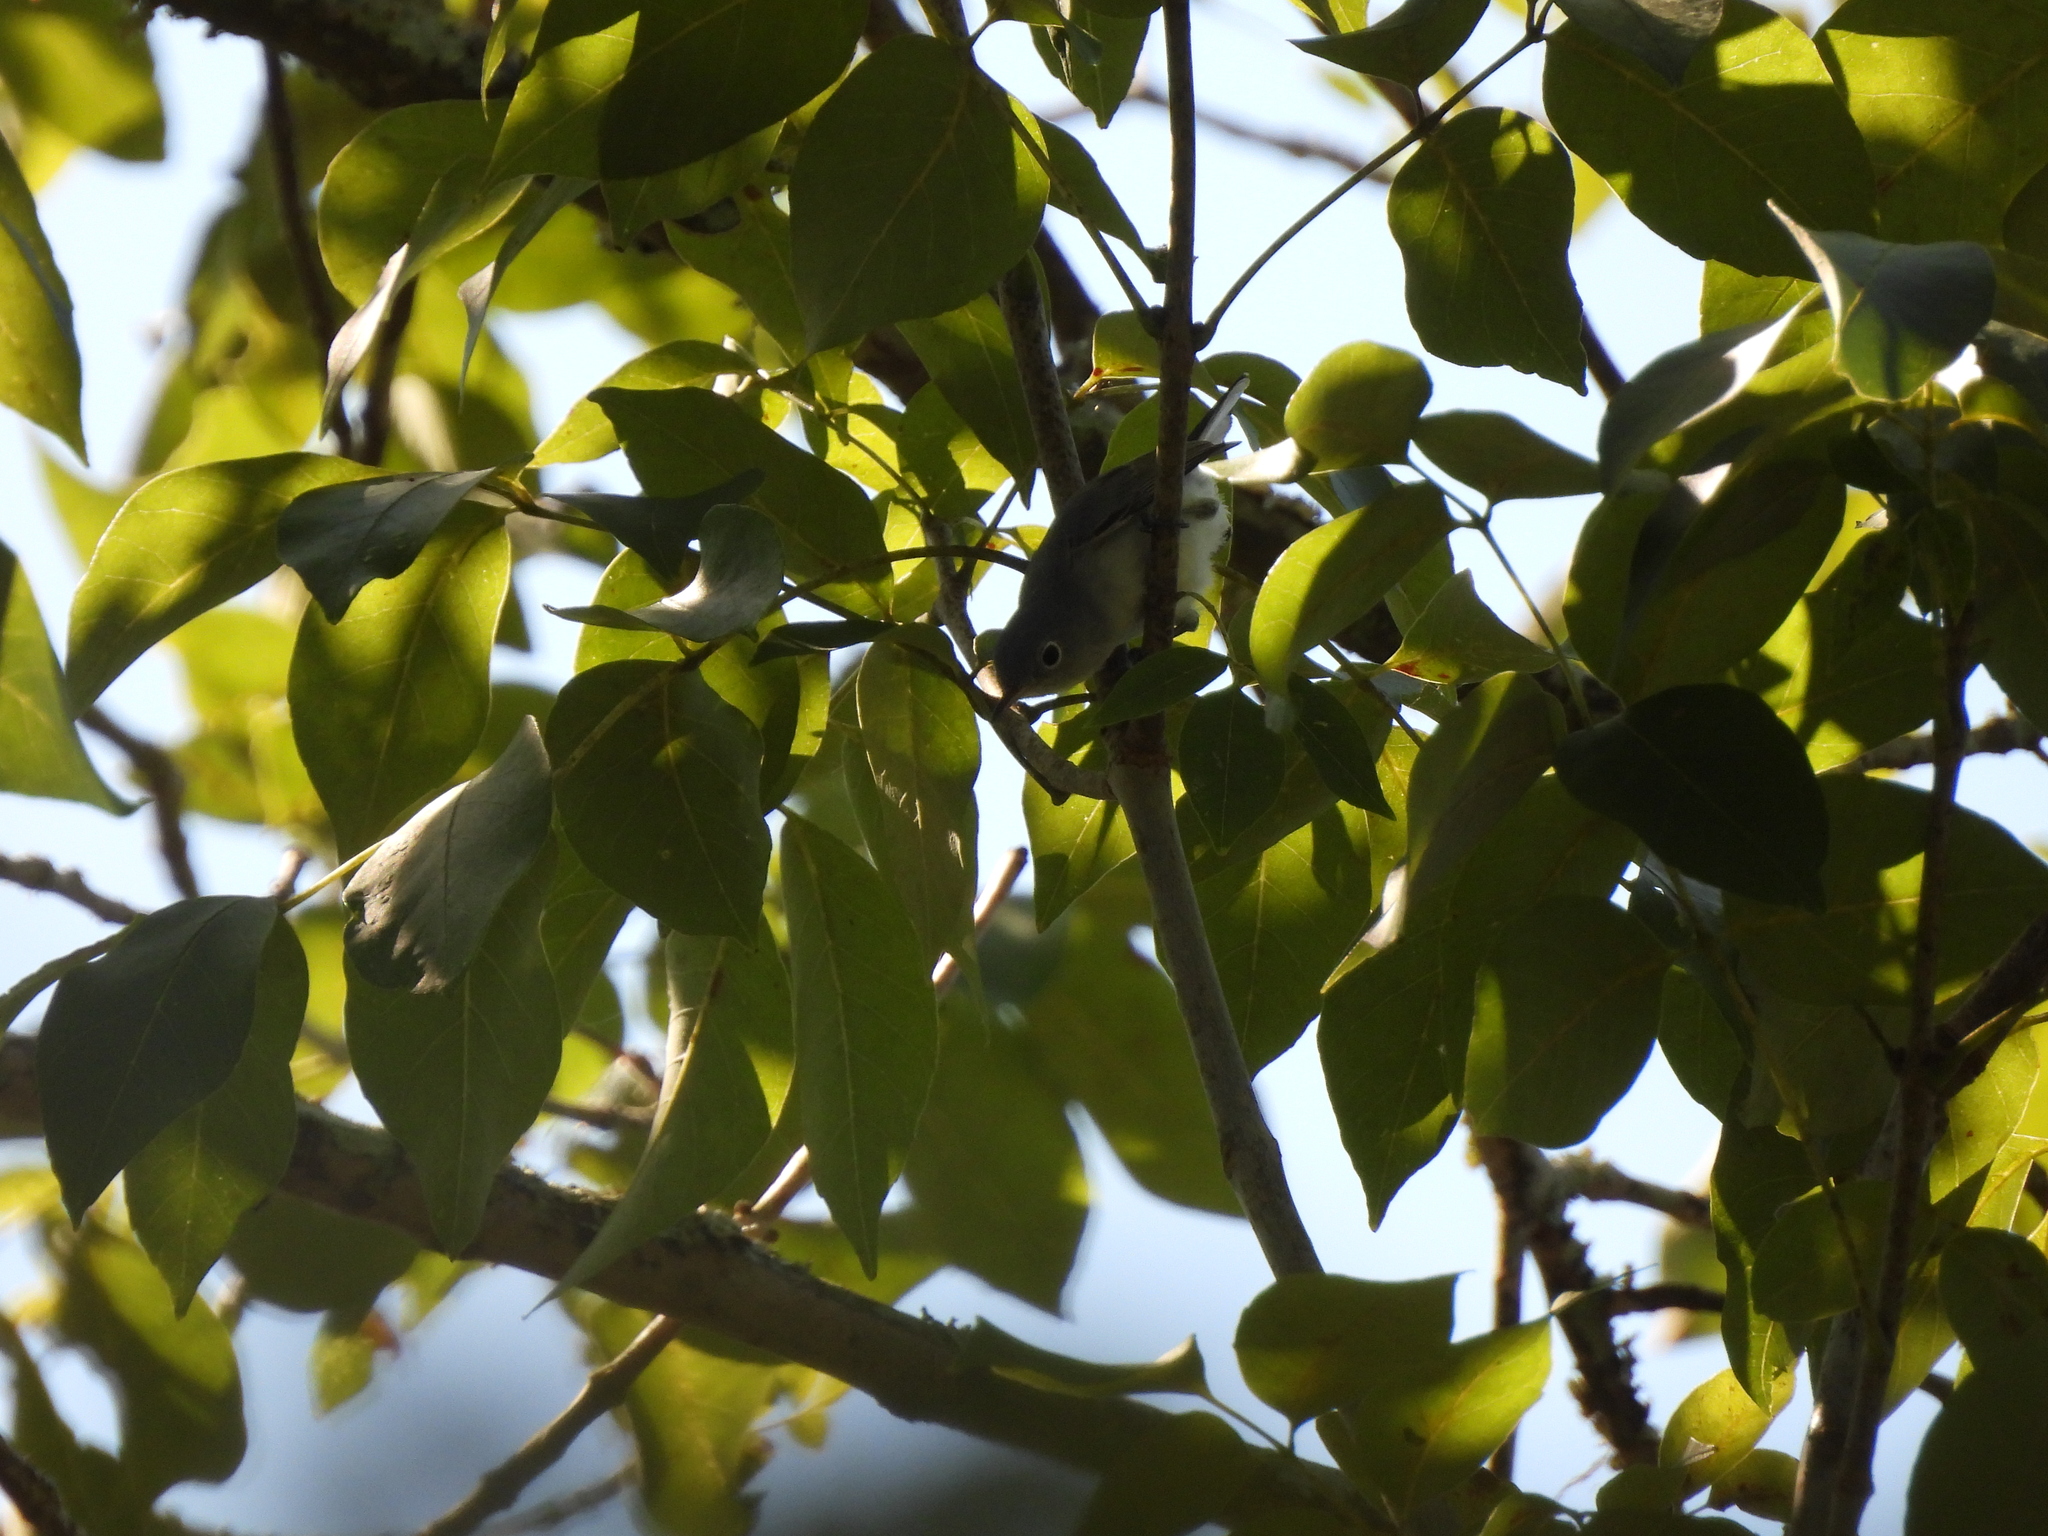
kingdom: Animalia
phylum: Chordata
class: Aves
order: Passeriformes
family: Polioptilidae
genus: Polioptila
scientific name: Polioptila caerulea
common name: Blue-gray gnatcatcher
